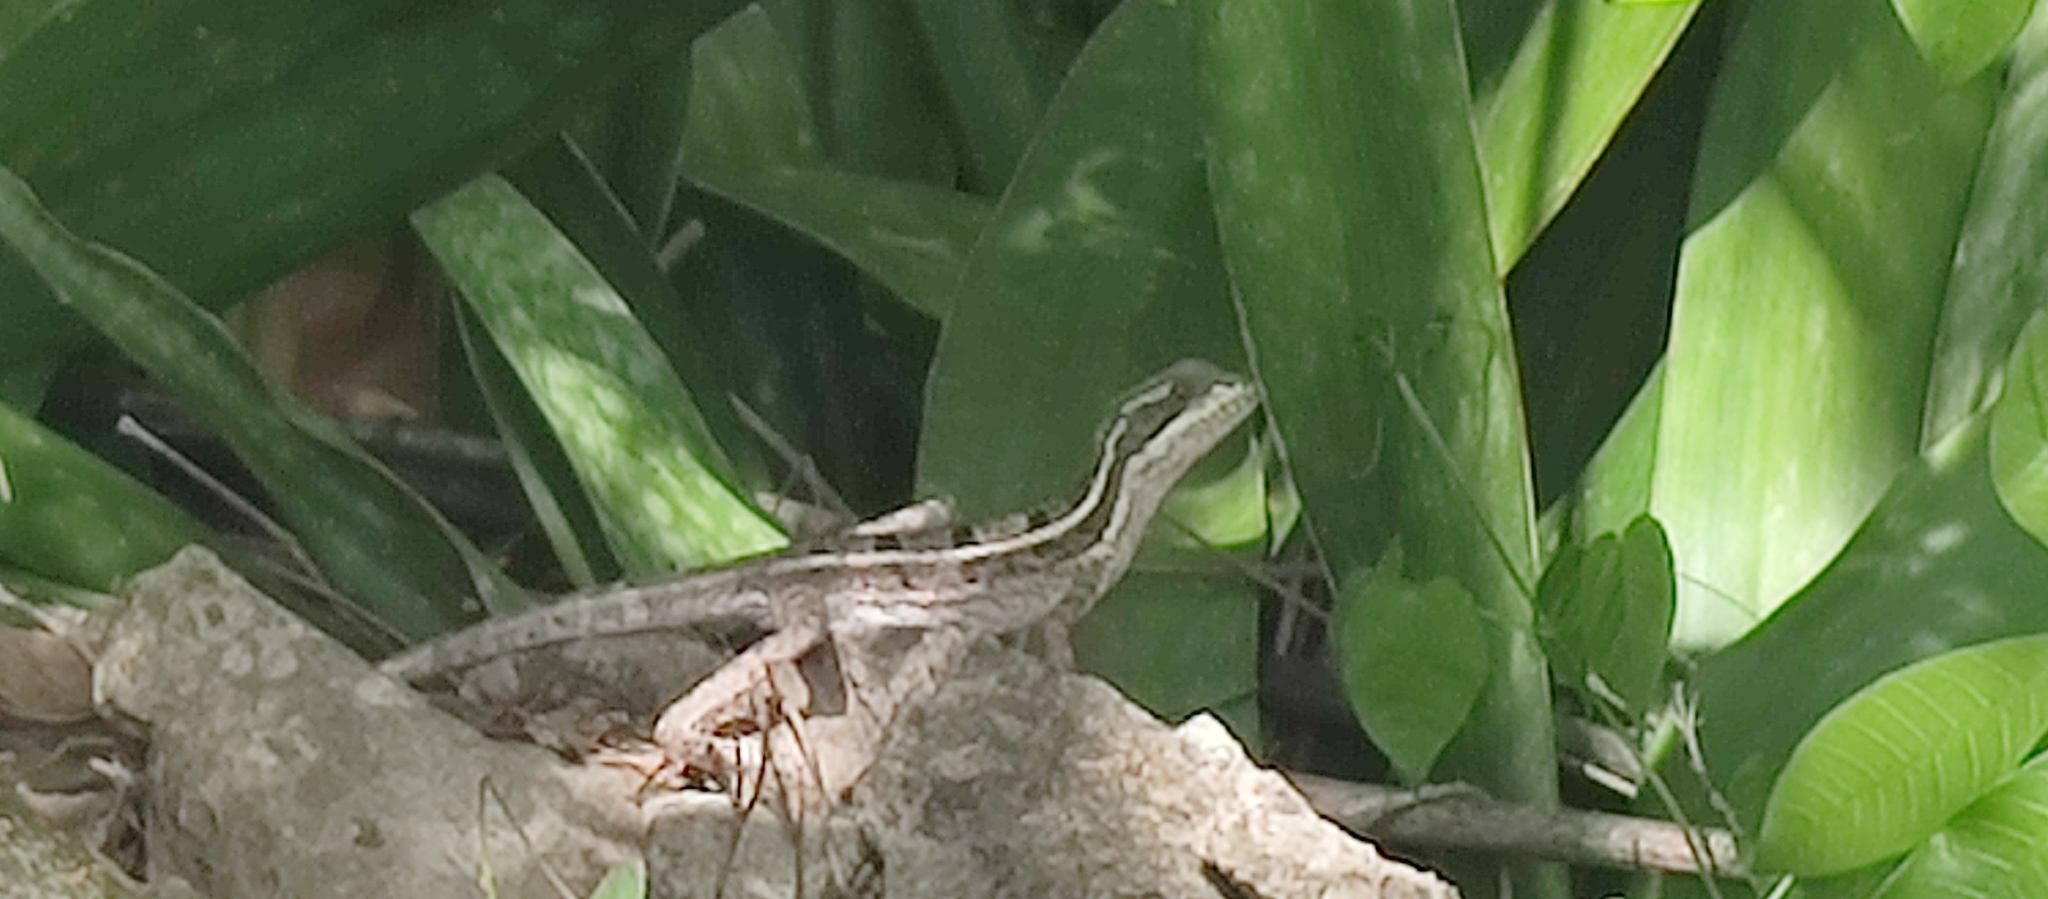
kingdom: Animalia
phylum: Chordata
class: Squamata
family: Corytophanidae
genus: Basiliscus
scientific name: Basiliscus vittatus
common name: Brown basilisk
